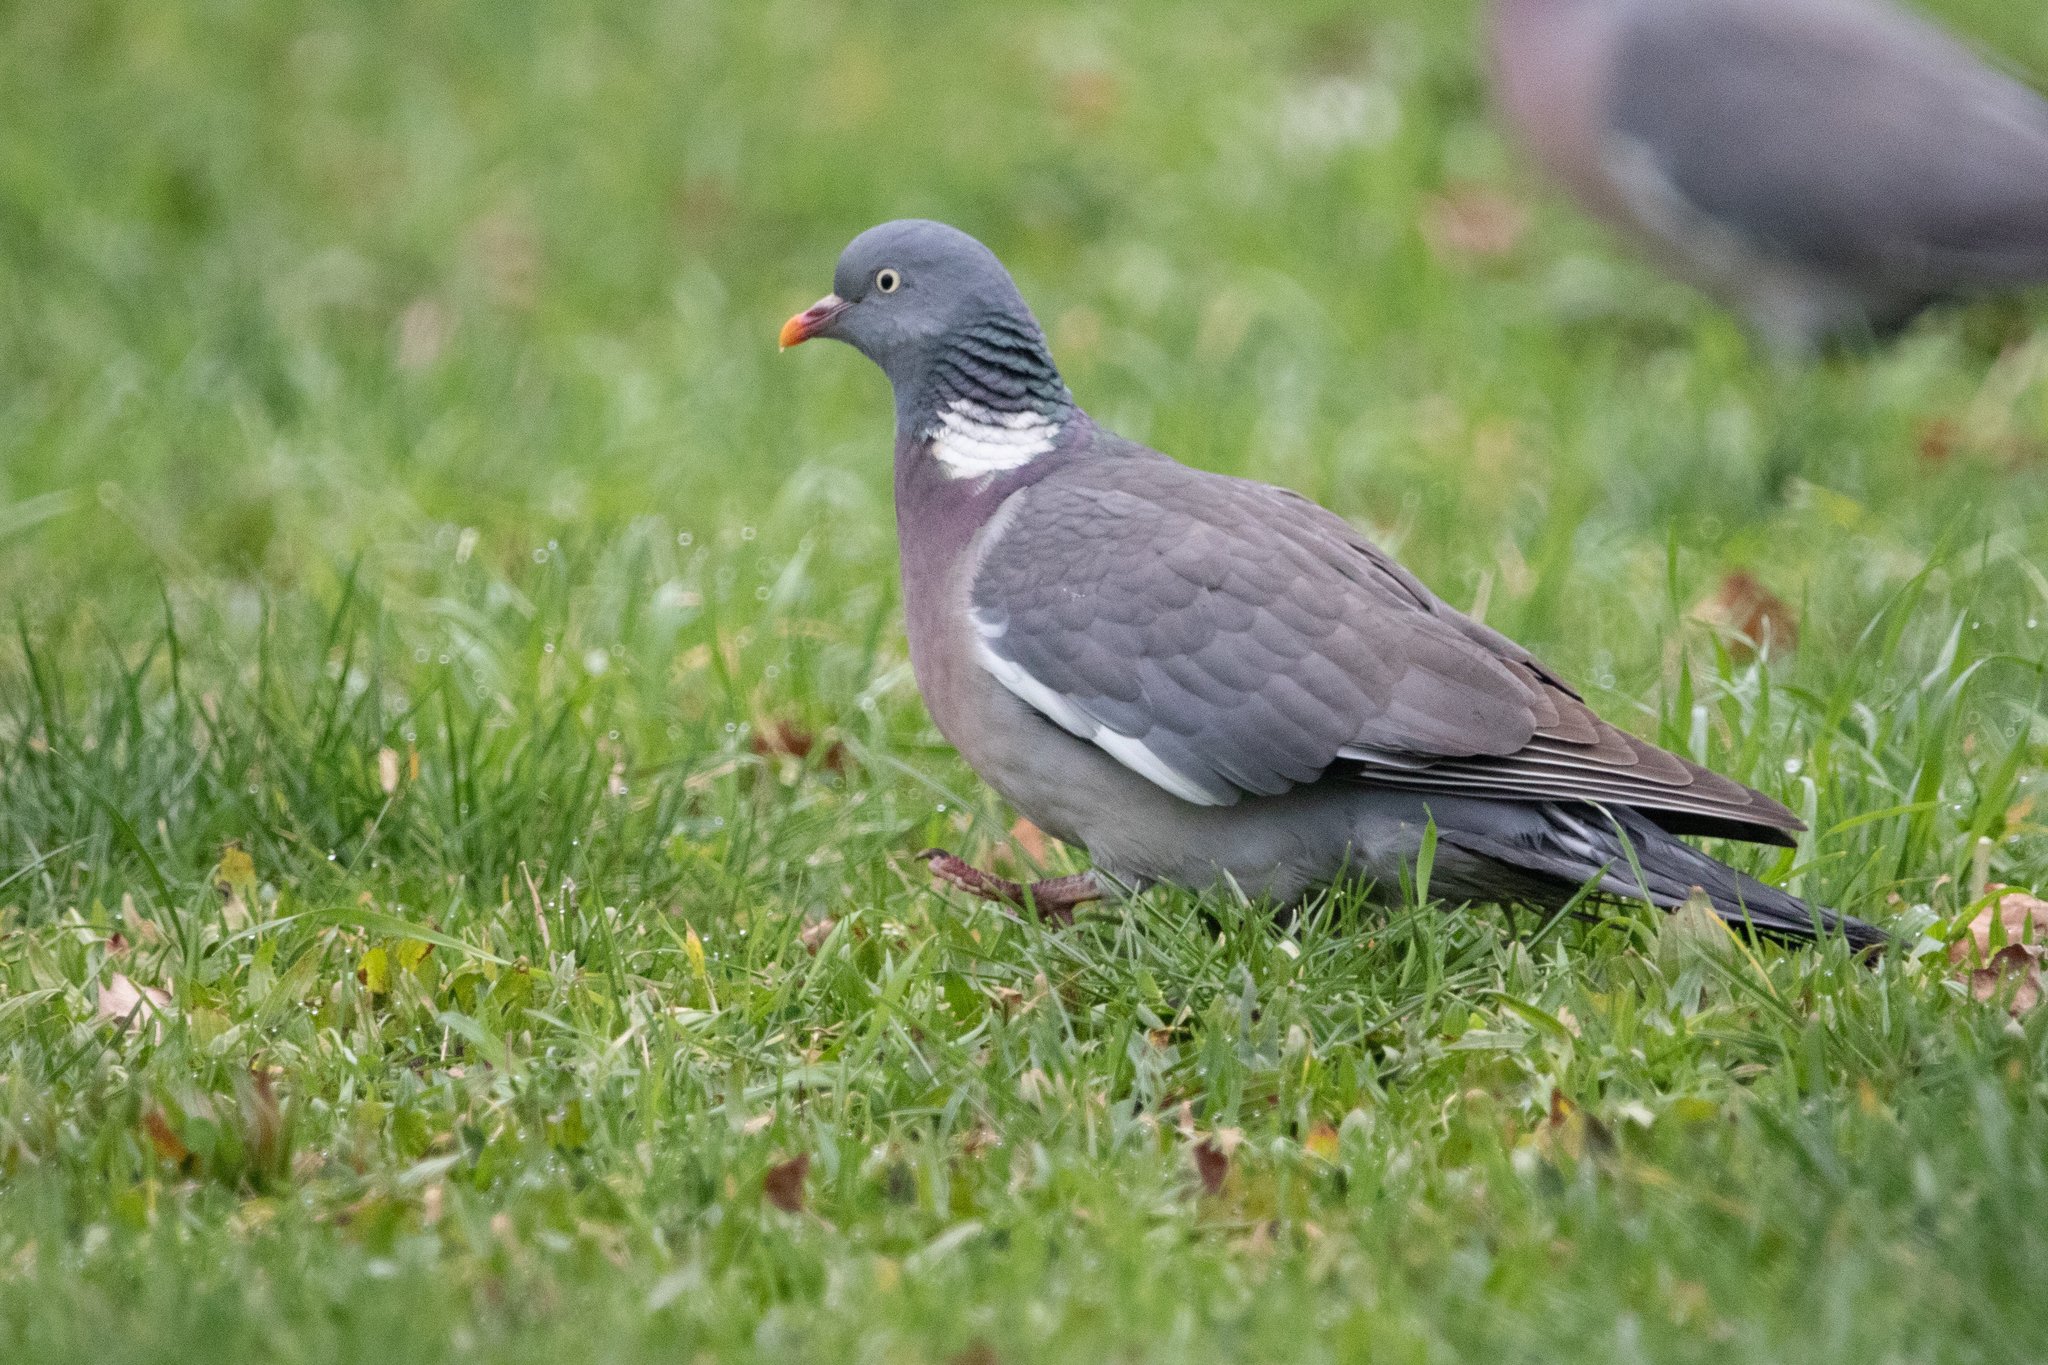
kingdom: Animalia
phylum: Chordata
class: Aves
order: Columbiformes
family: Columbidae
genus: Columba
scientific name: Columba palumbus
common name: Common wood pigeon
